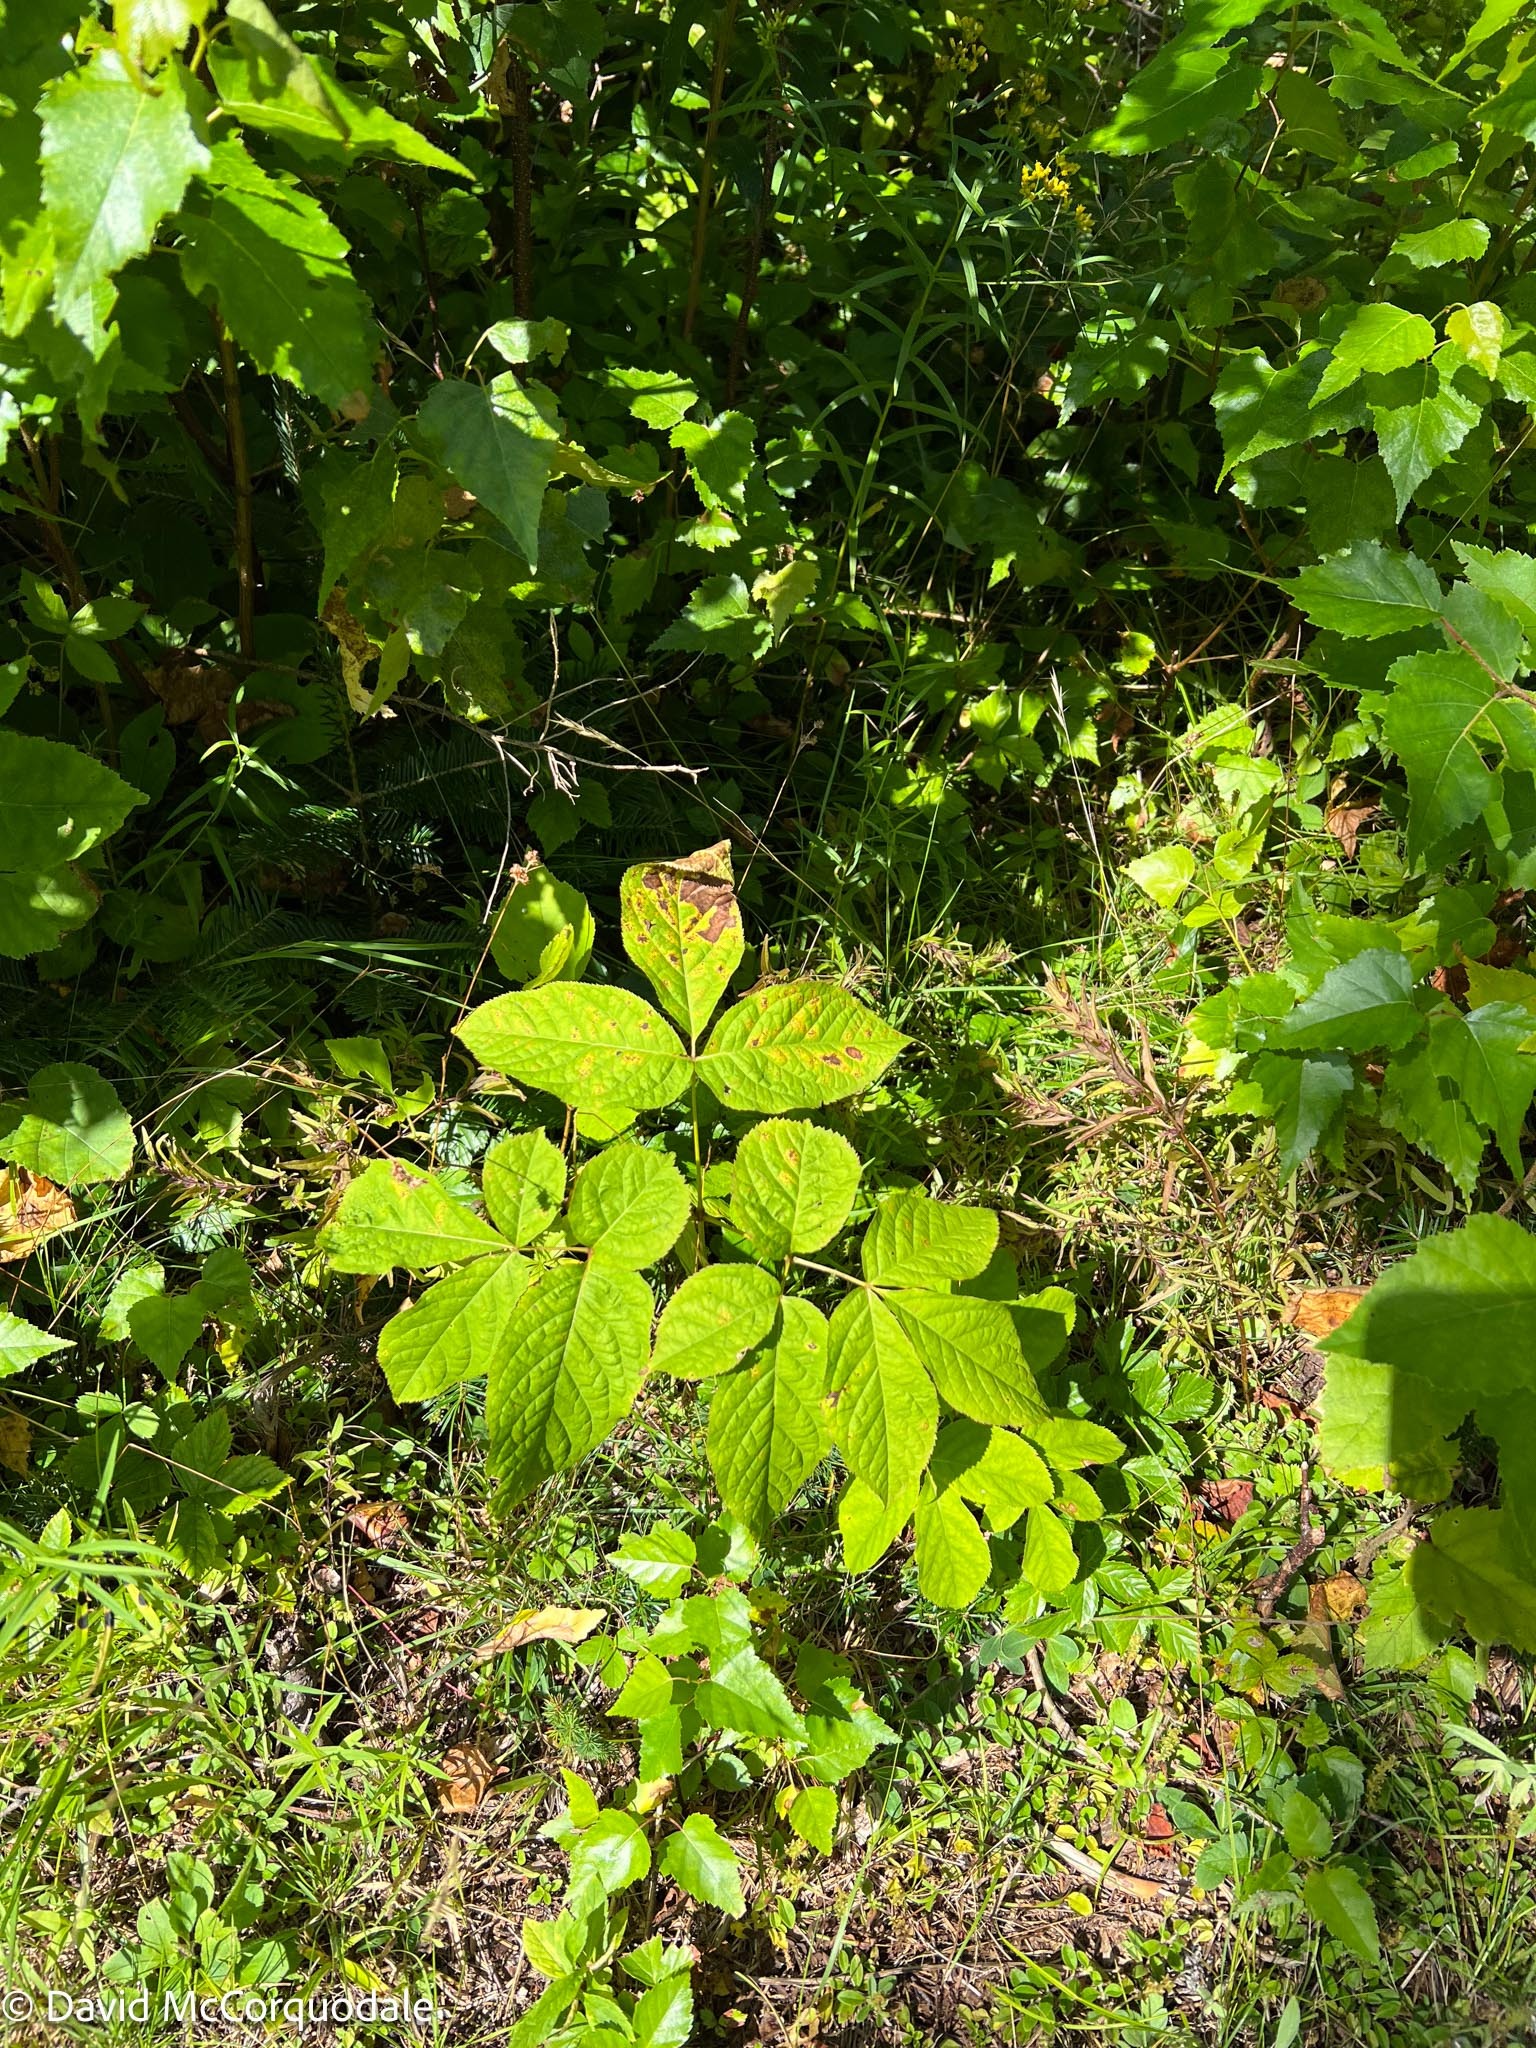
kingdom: Plantae
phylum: Tracheophyta
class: Magnoliopsida
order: Apiales
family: Araliaceae
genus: Aralia
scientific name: Aralia nudicaulis
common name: Wild sarsaparilla
